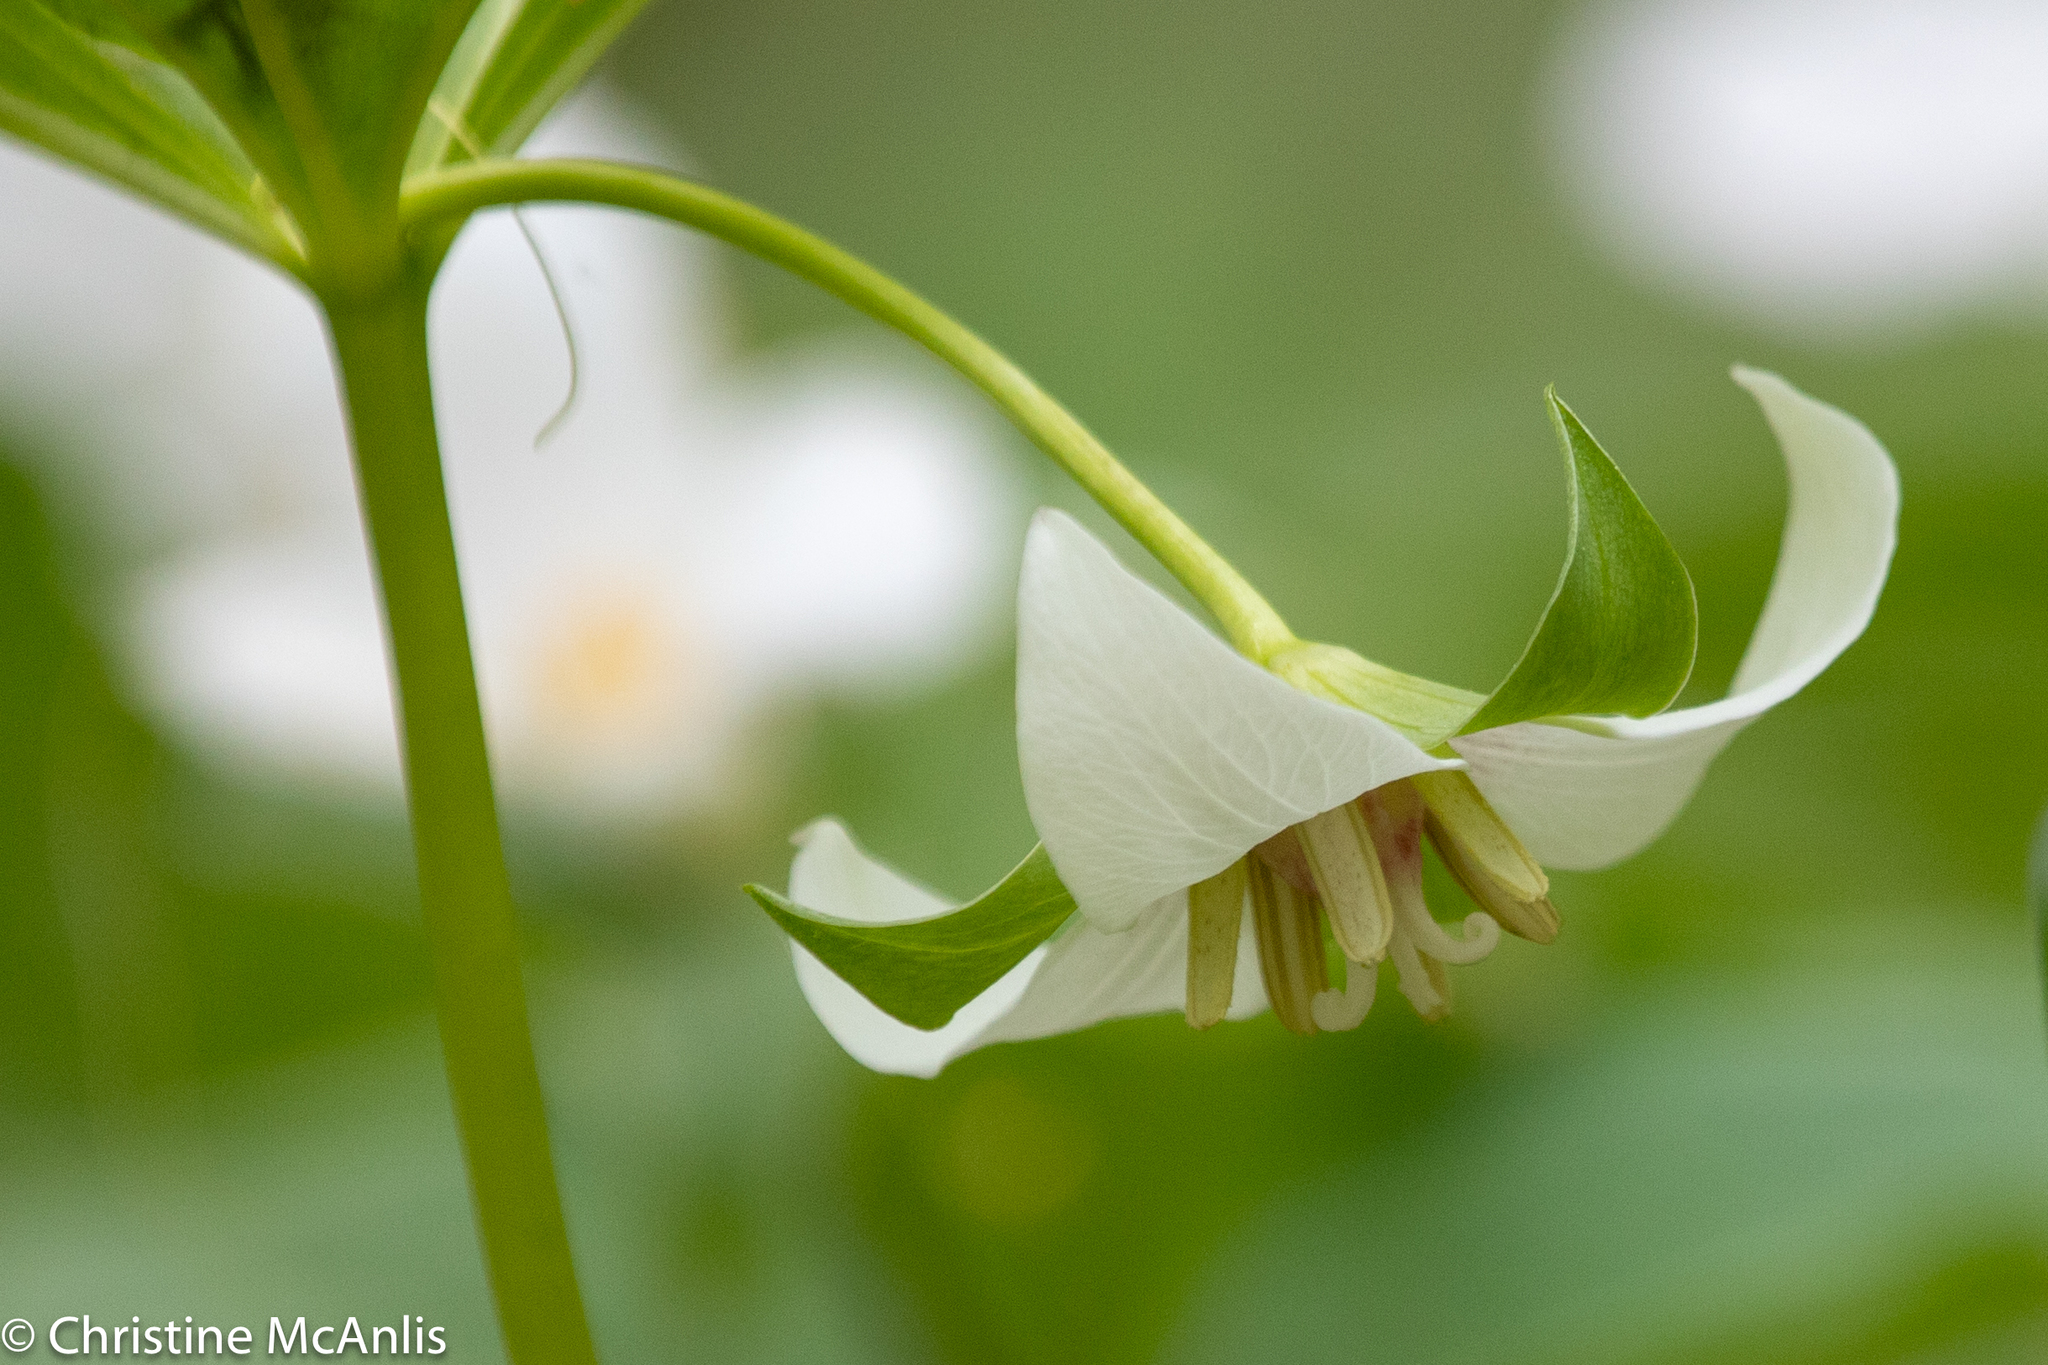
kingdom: Plantae
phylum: Tracheophyta
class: Liliopsida
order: Liliales
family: Melanthiaceae
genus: Trillium
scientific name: Trillium flexipes
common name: Drooping trillium
